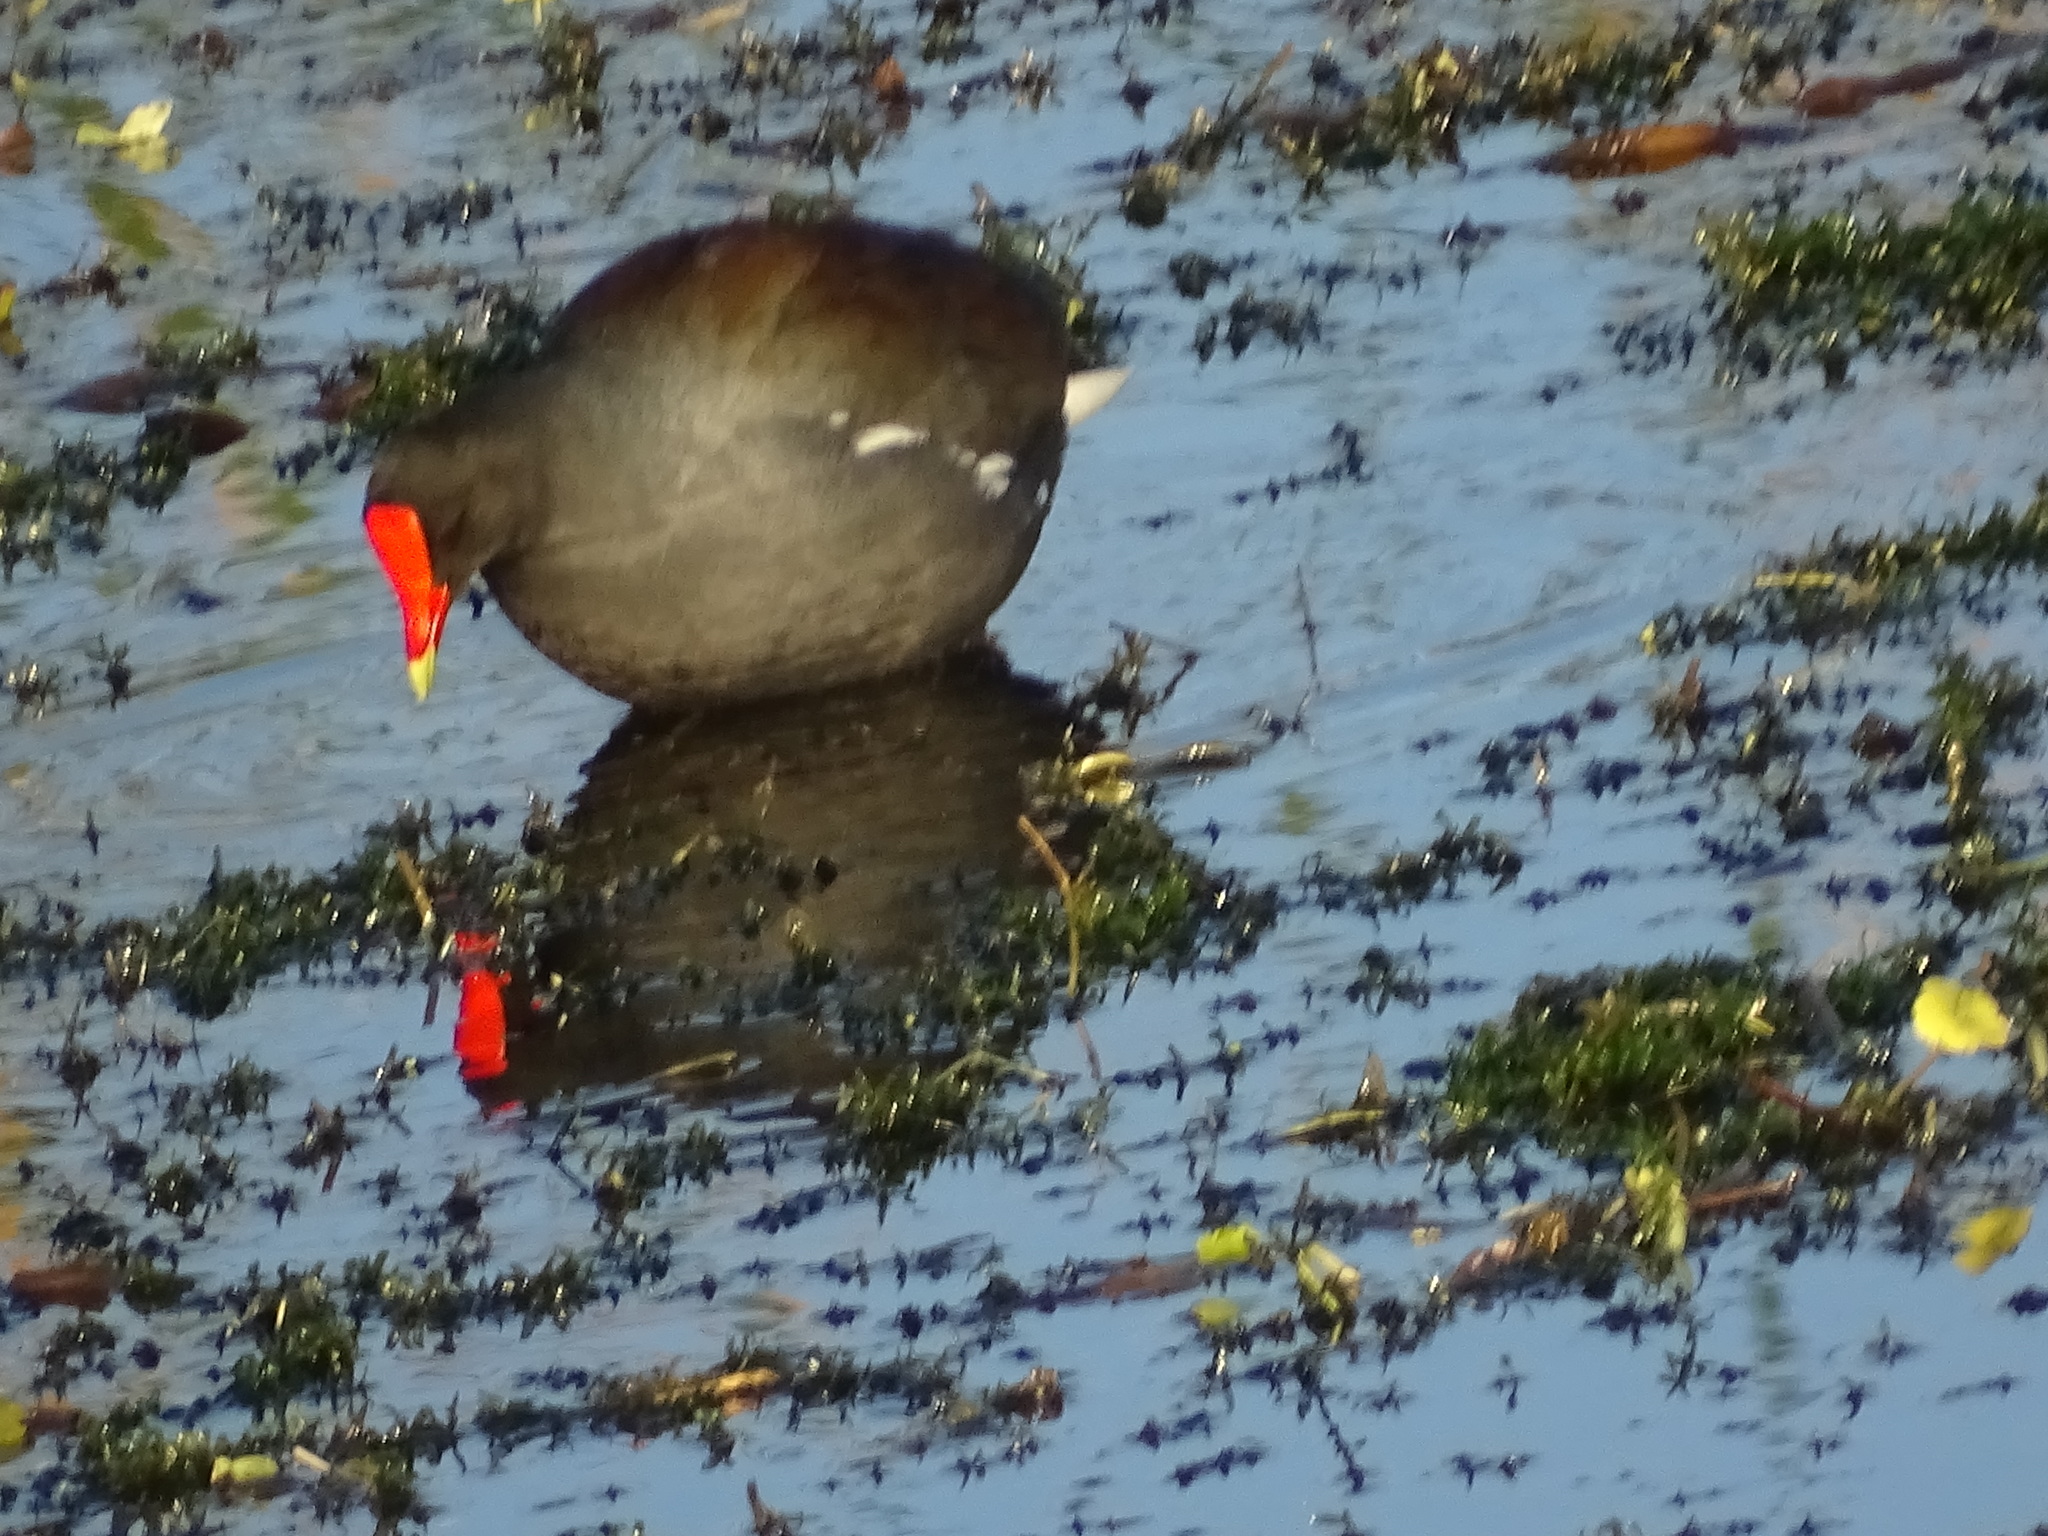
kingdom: Animalia
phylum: Chordata
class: Aves
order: Gruiformes
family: Rallidae
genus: Gallinula
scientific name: Gallinula chloropus
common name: Common moorhen
